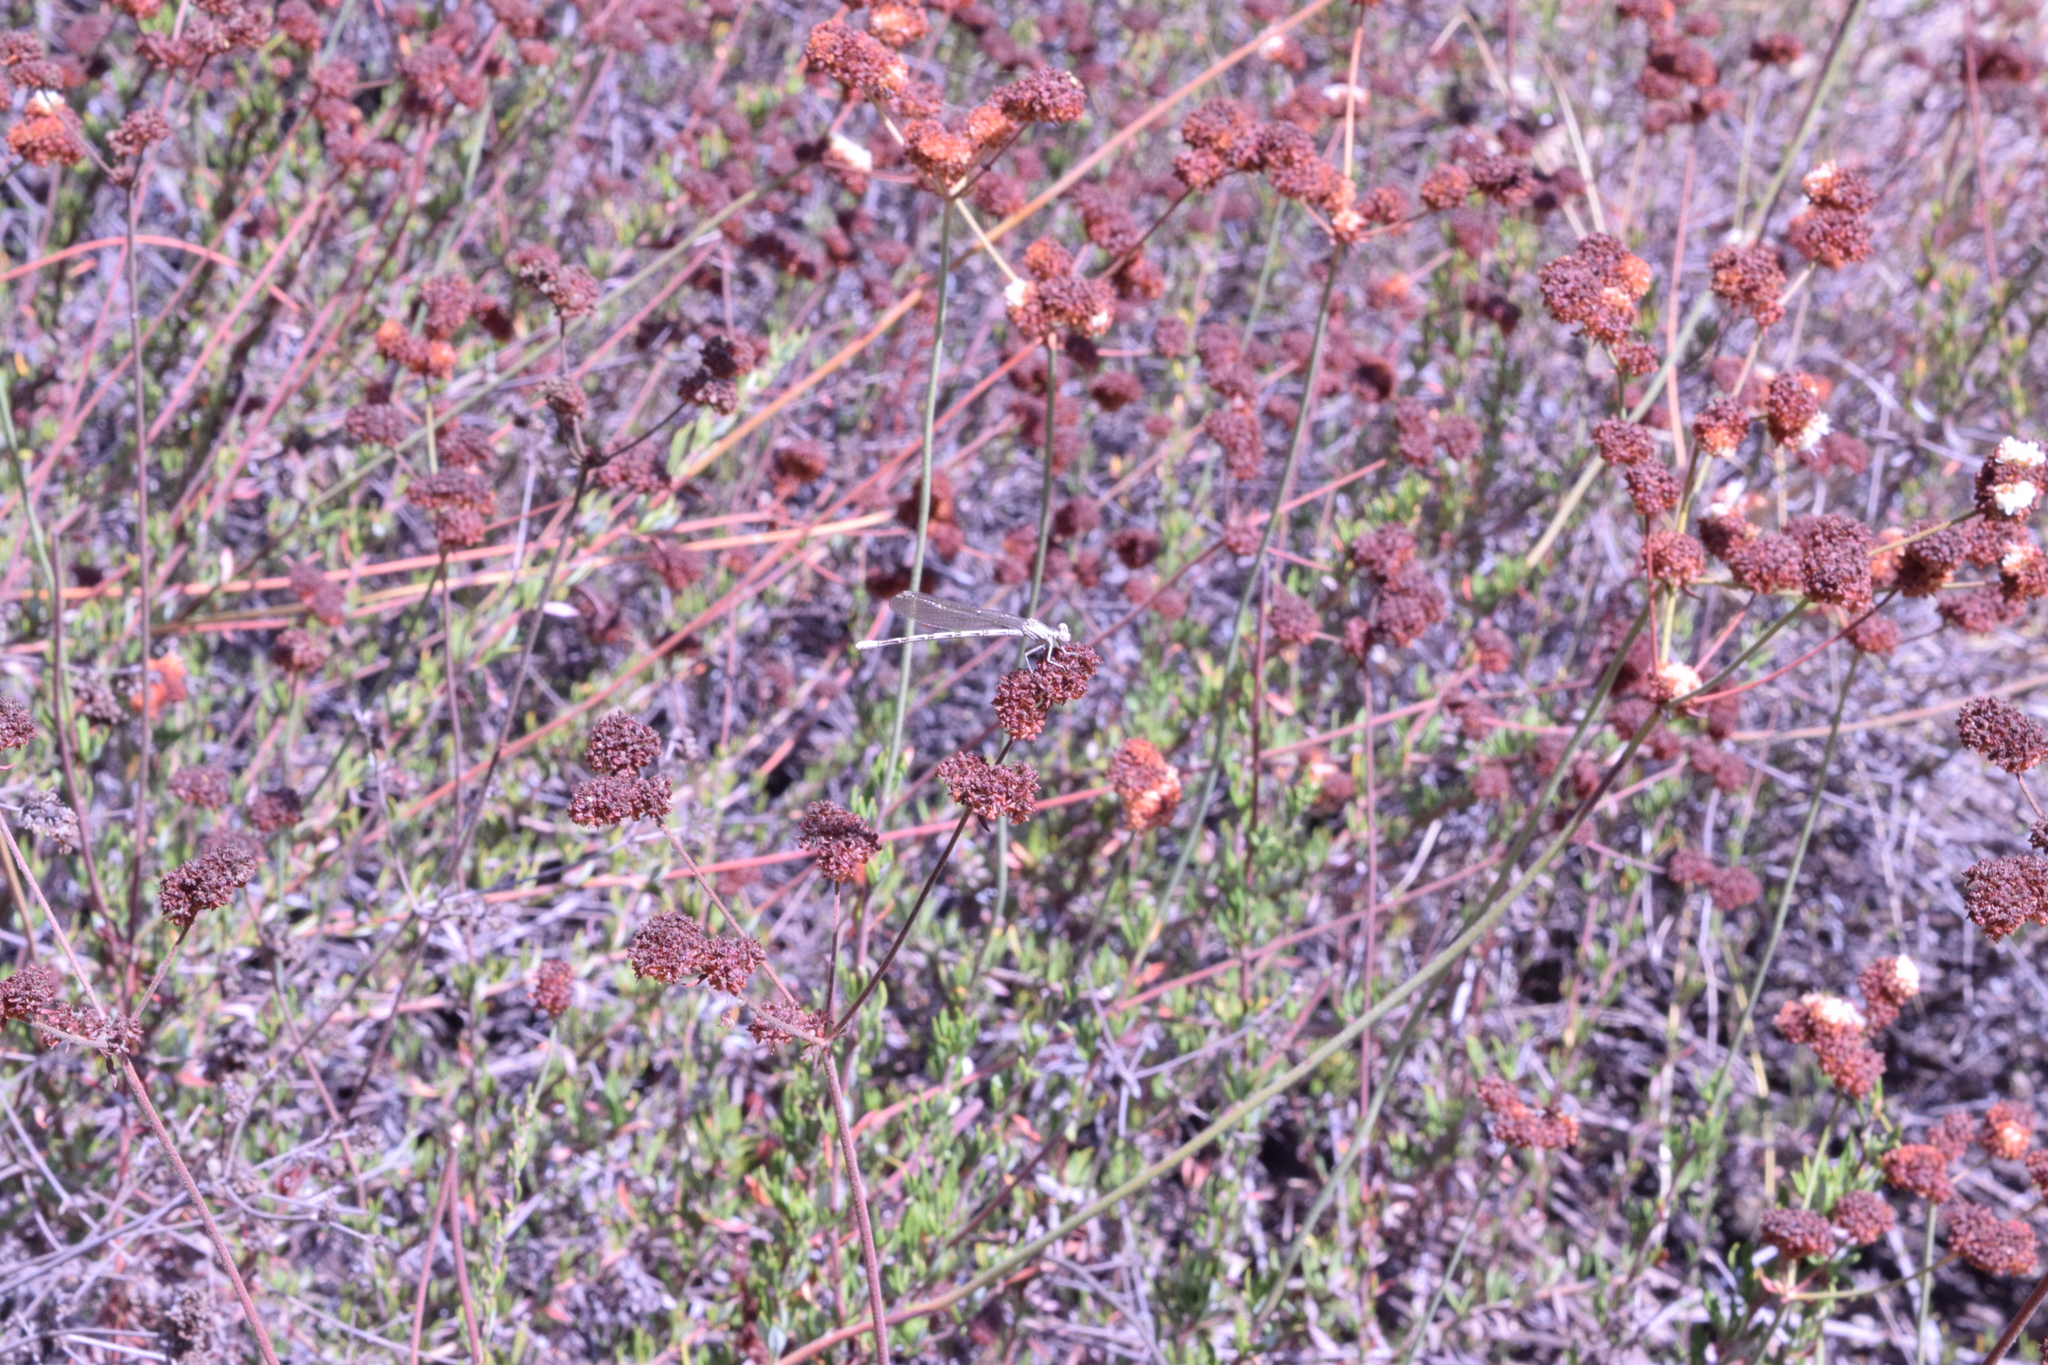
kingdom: Plantae
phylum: Tracheophyta
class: Magnoliopsida
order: Caryophyllales
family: Polygonaceae
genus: Eriogonum
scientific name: Eriogonum fasciculatum
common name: California wild buckwheat
